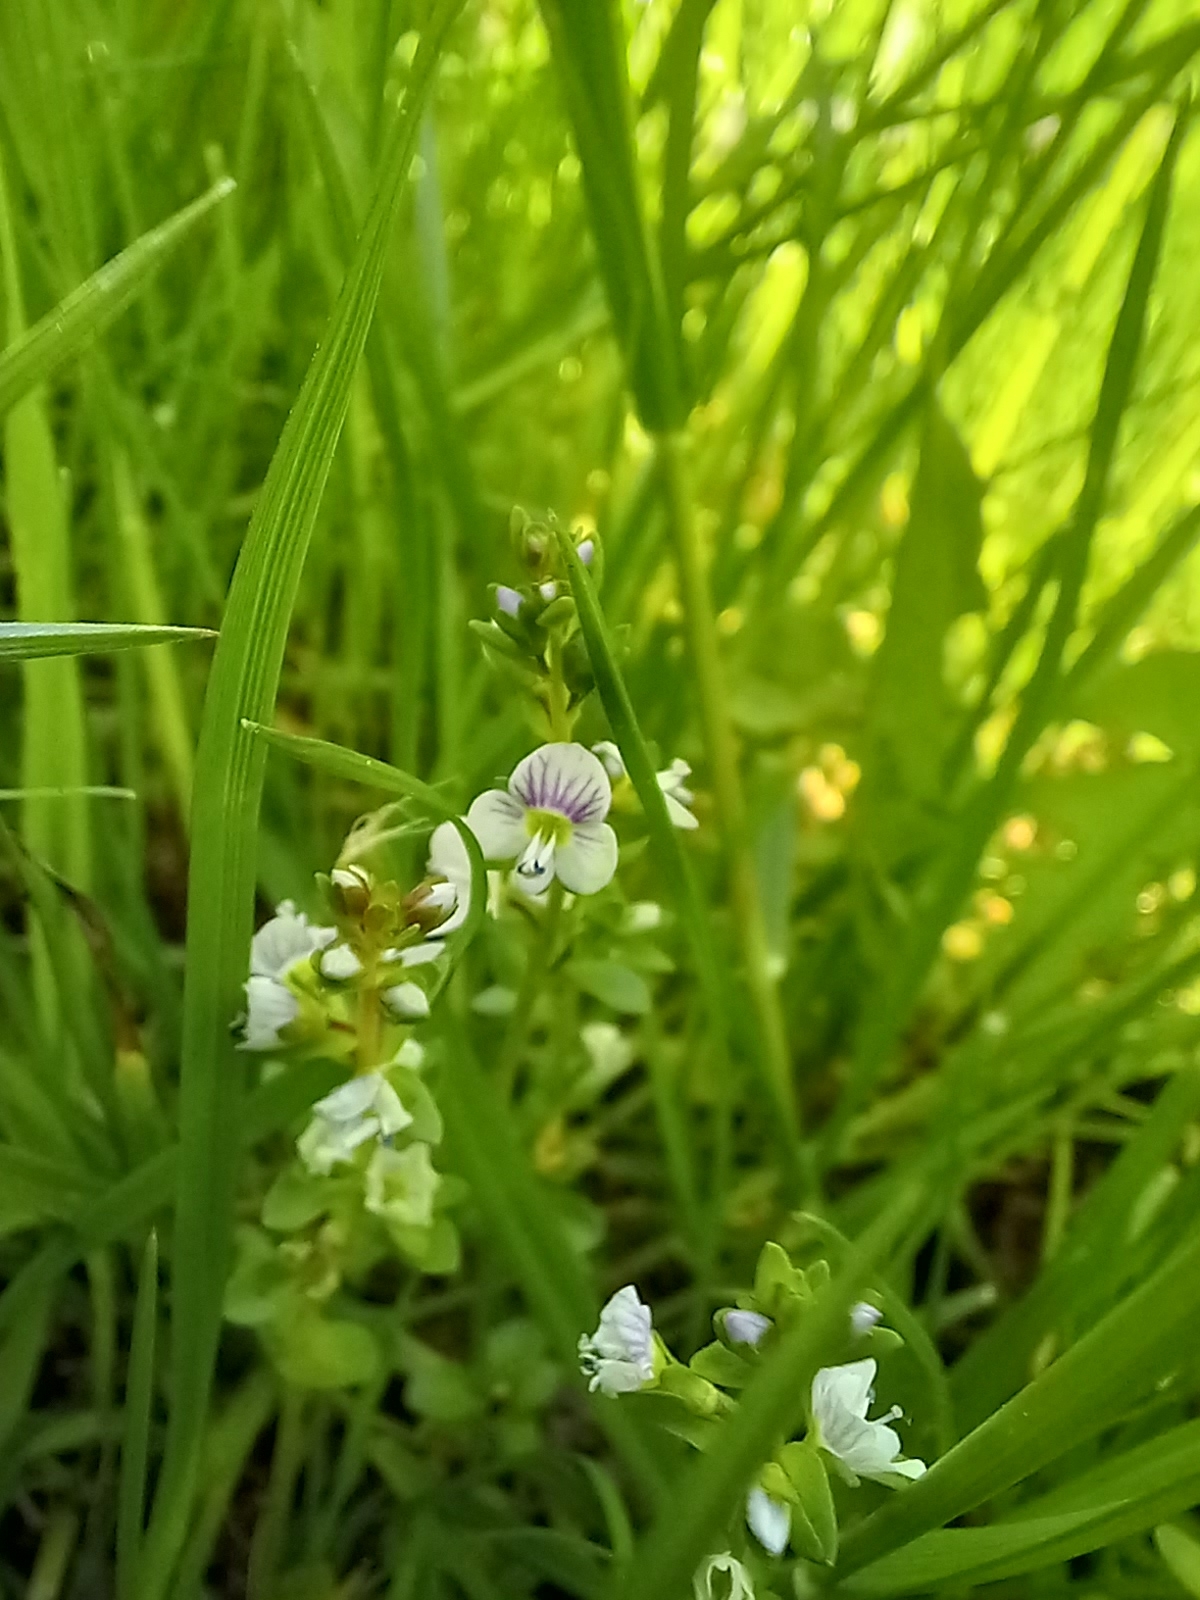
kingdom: Plantae
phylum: Tracheophyta
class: Magnoliopsida
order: Lamiales
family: Plantaginaceae
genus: Veronica
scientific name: Veronica serpyllifolia
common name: Thyme-leaved speedwell
